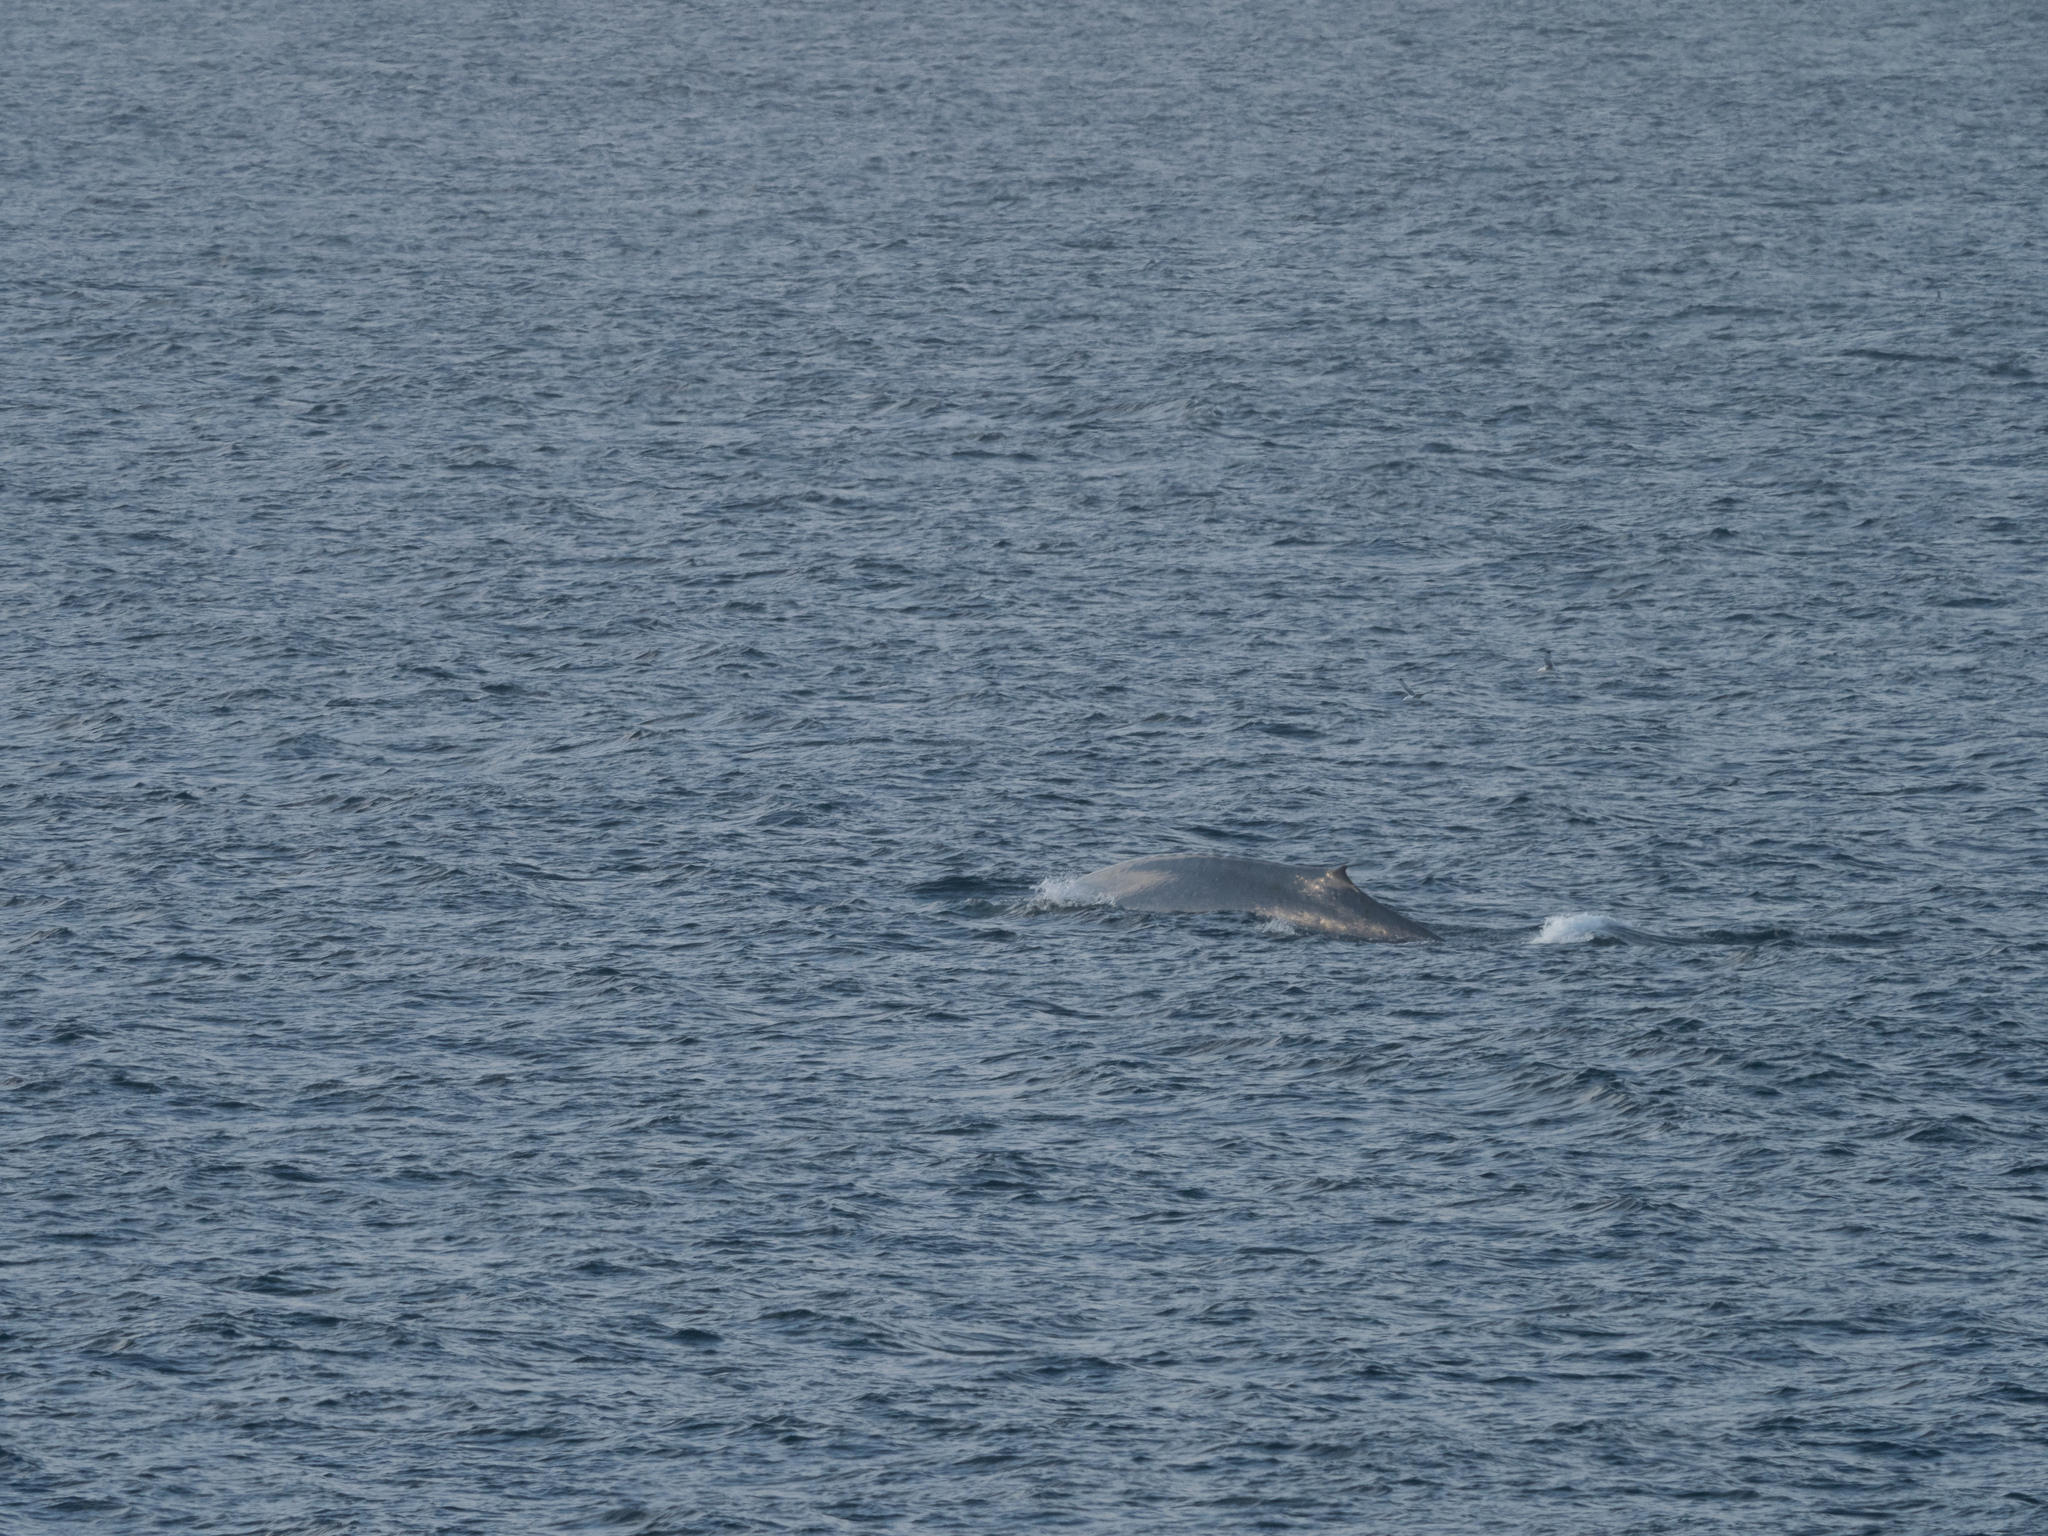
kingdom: Animalia
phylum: Chordata
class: Mammalia
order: Cetacea
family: Balaenopteridae
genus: Balaenoptera
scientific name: Balaenoptera musculus
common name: Blue whale
